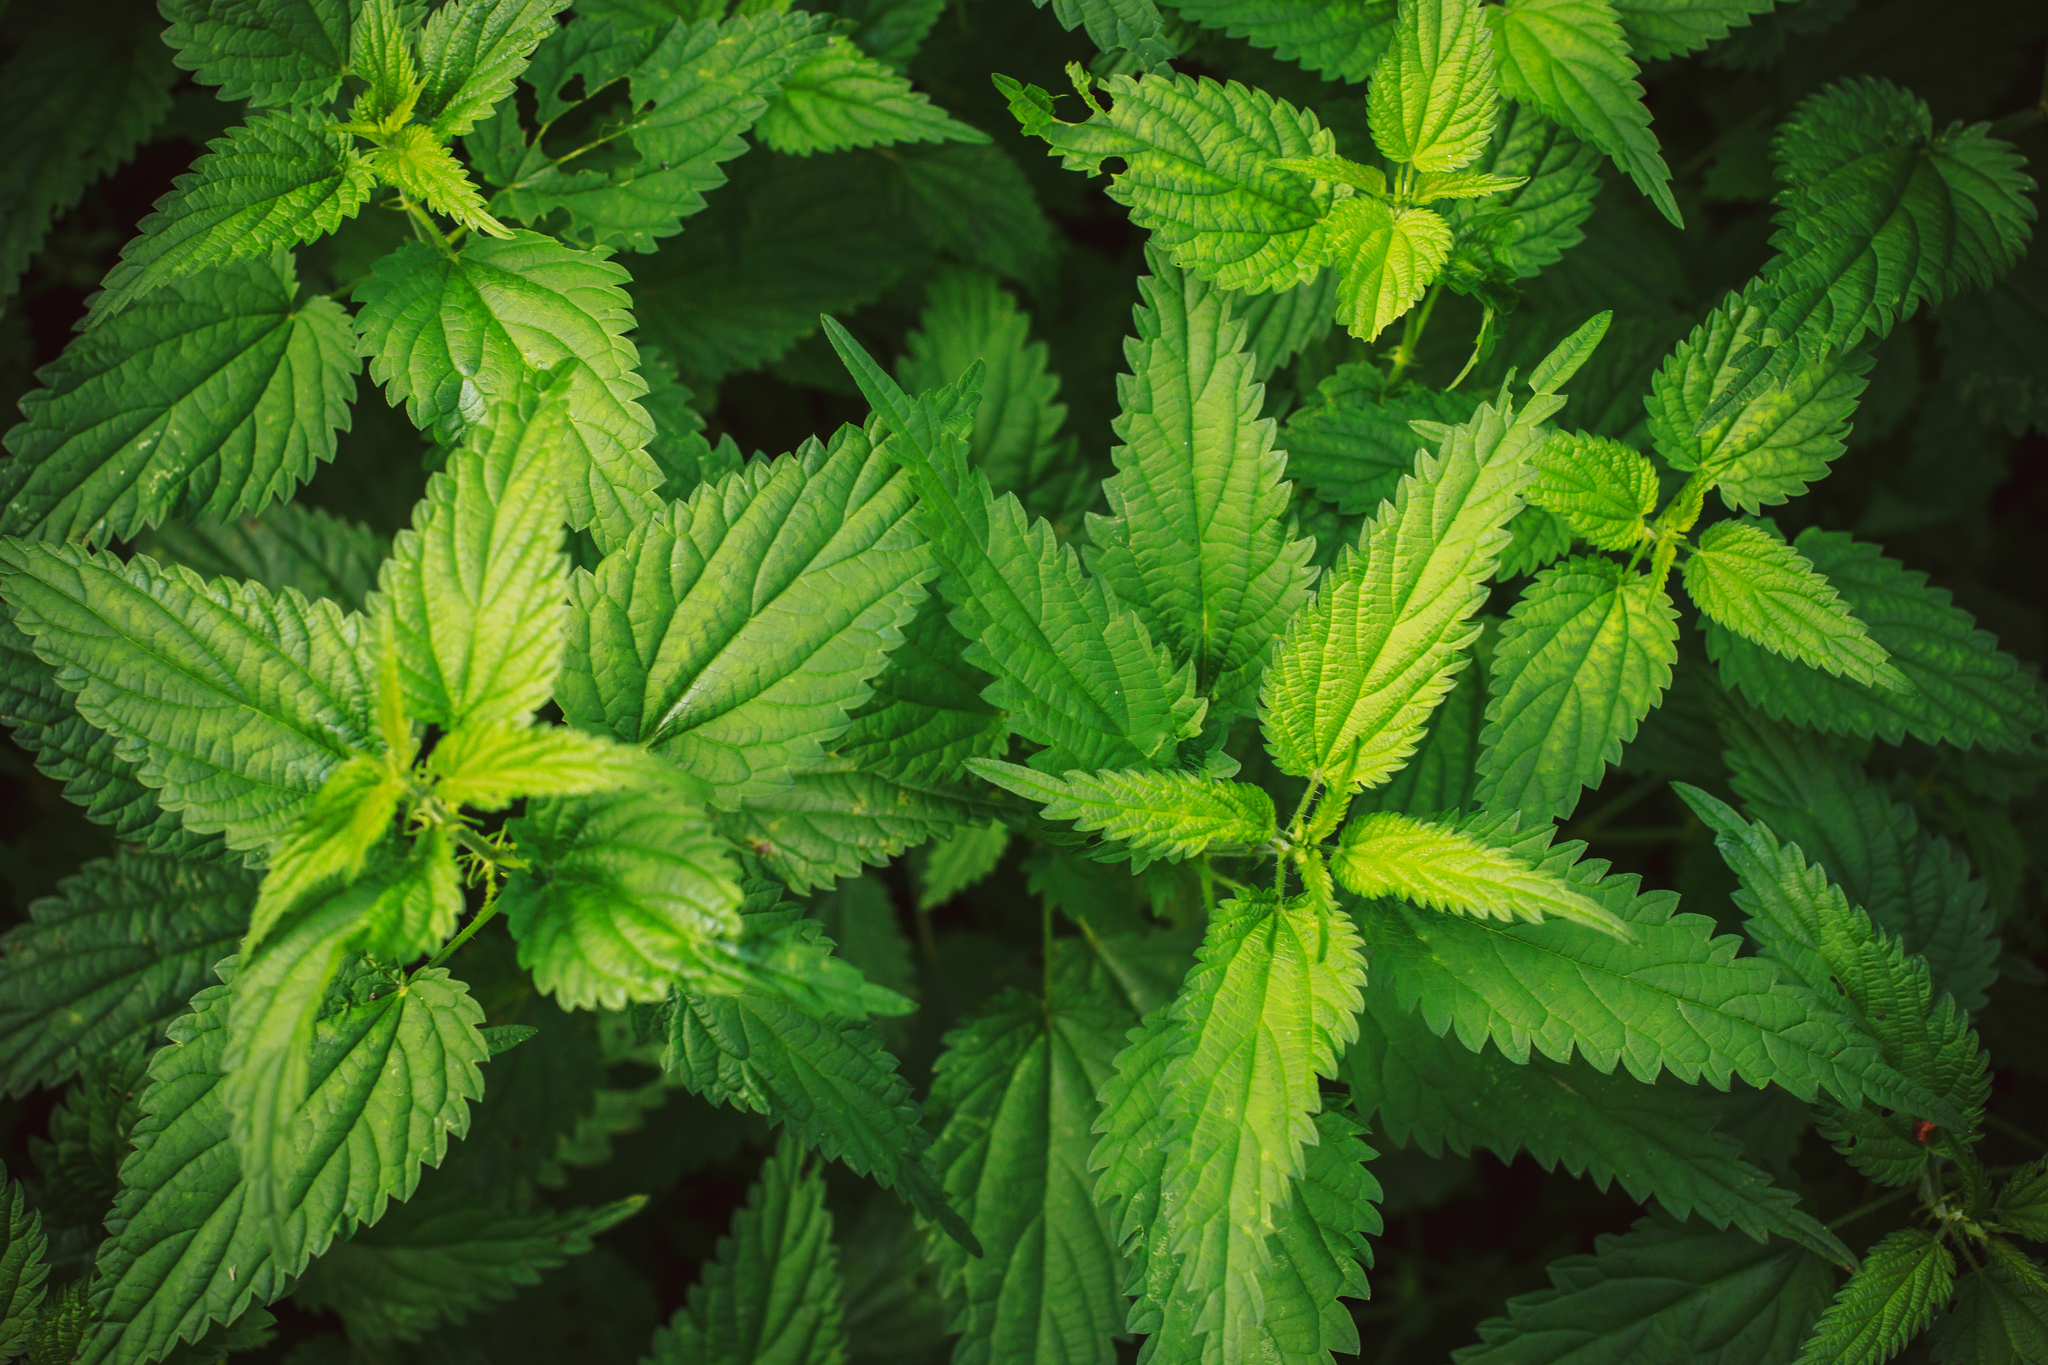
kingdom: Plantae
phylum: Tracheophyta
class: Magnoliopsida
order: Rosales
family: Urticaceae
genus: Urtica
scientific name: Urtica dioica
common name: Common nettle
